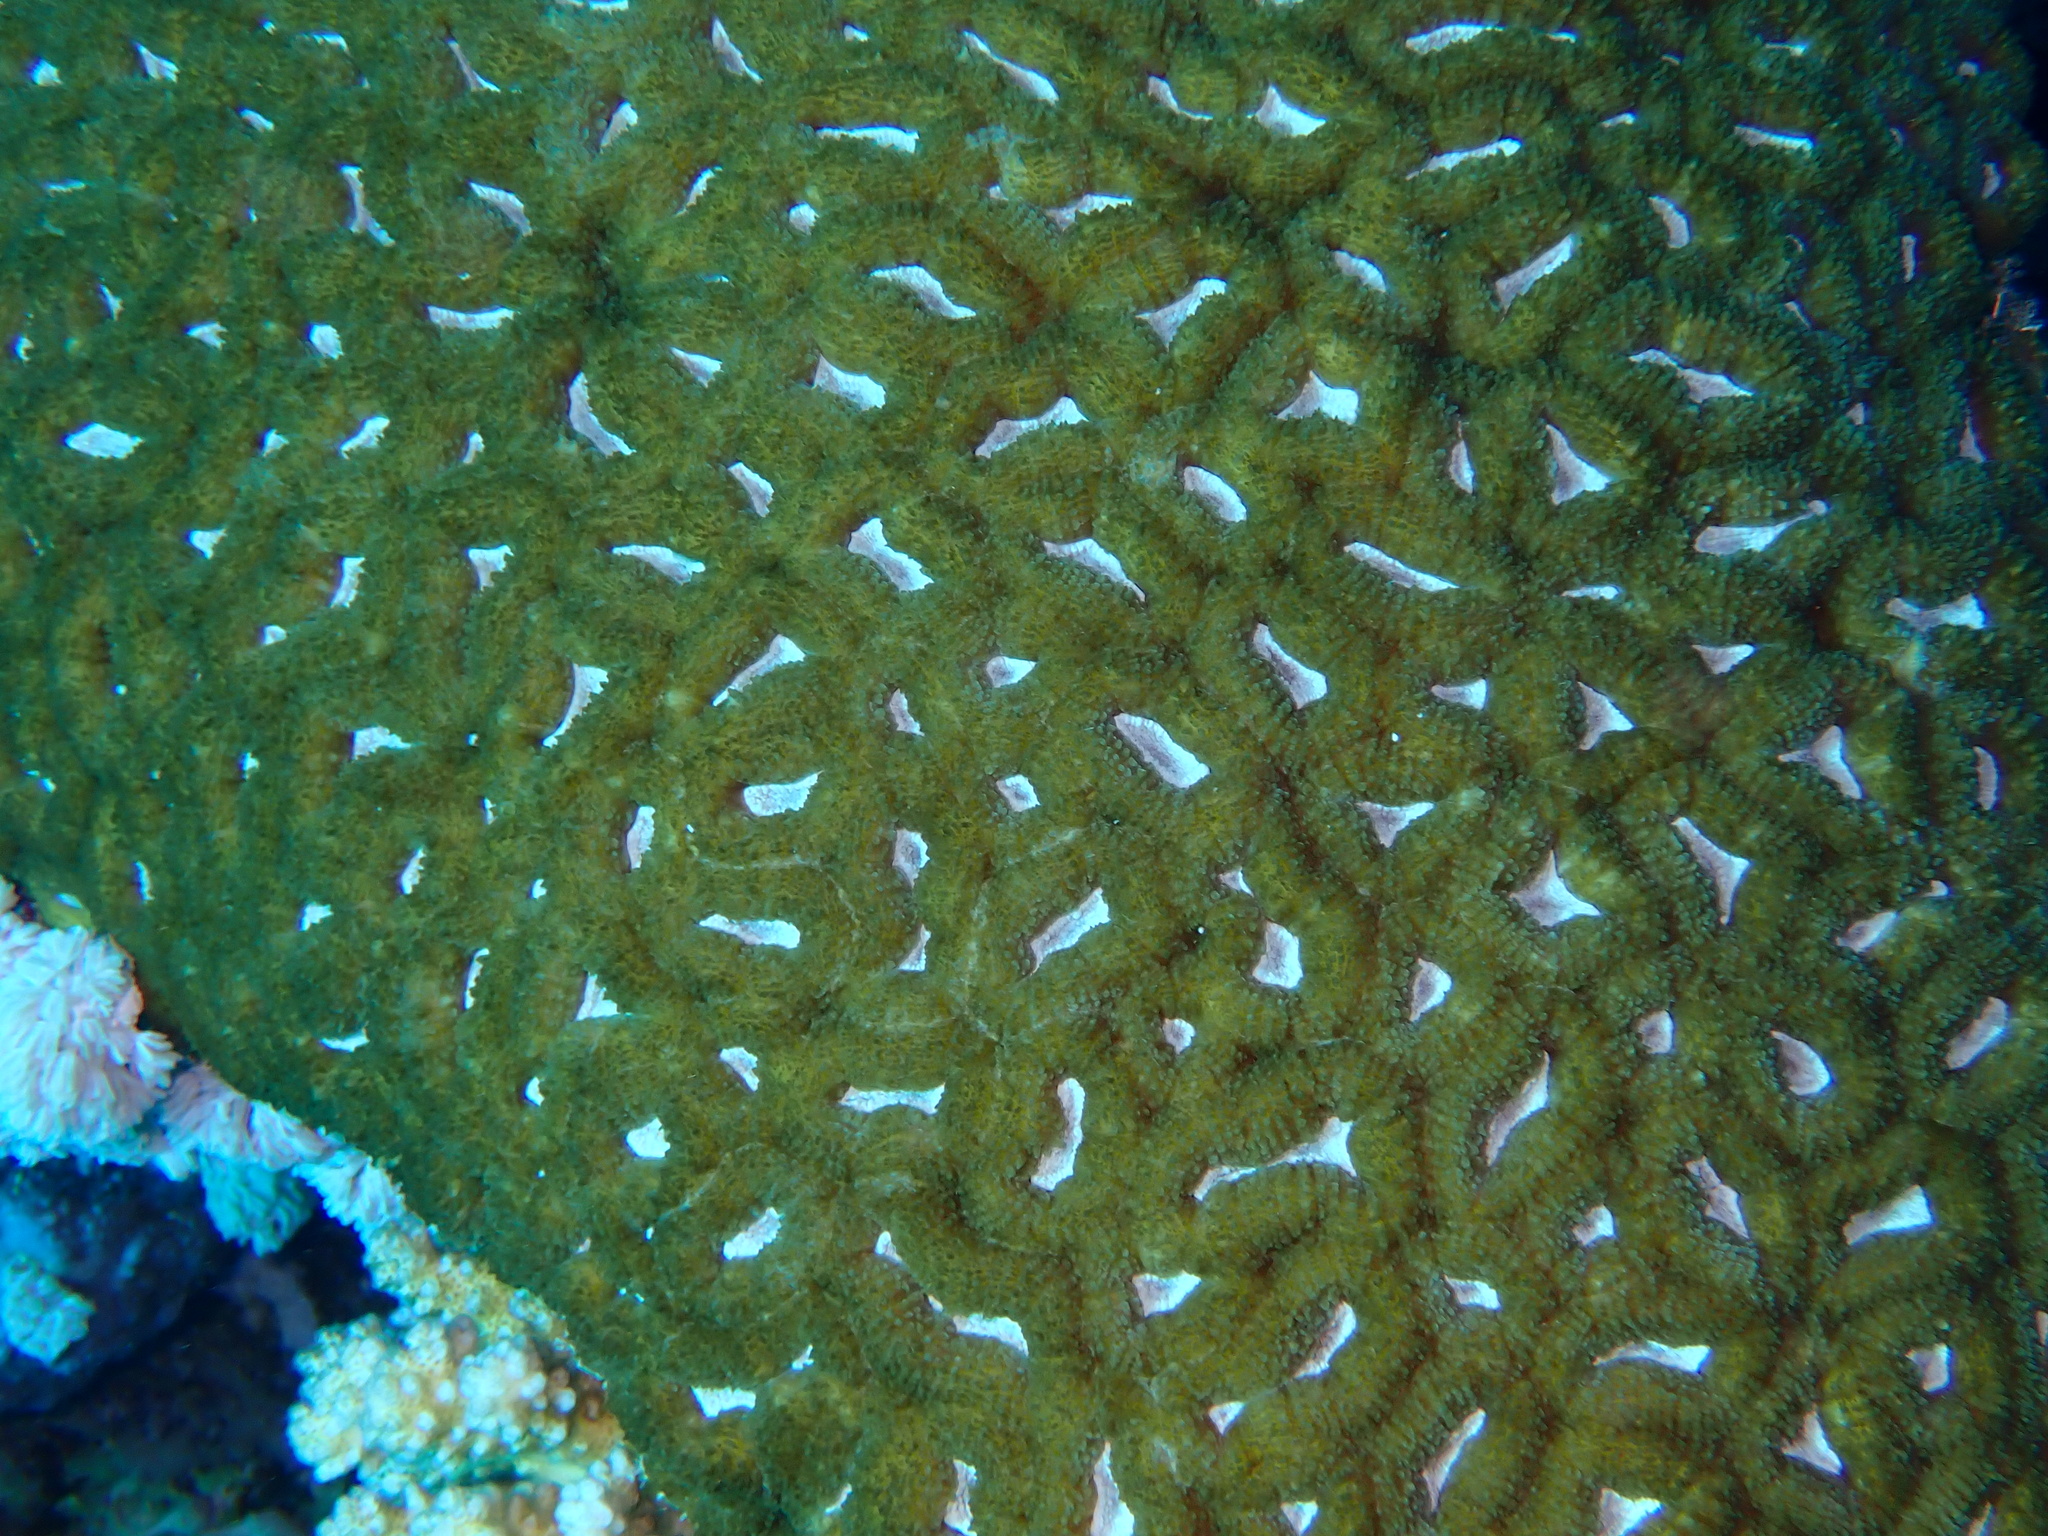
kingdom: Animalia
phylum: Cnidaria
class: Anthozoa
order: Scleractinia
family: Lobophylliidae
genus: Lobophyllia
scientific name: Lobophyllia corymbosa
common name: Lobed cactus coral
